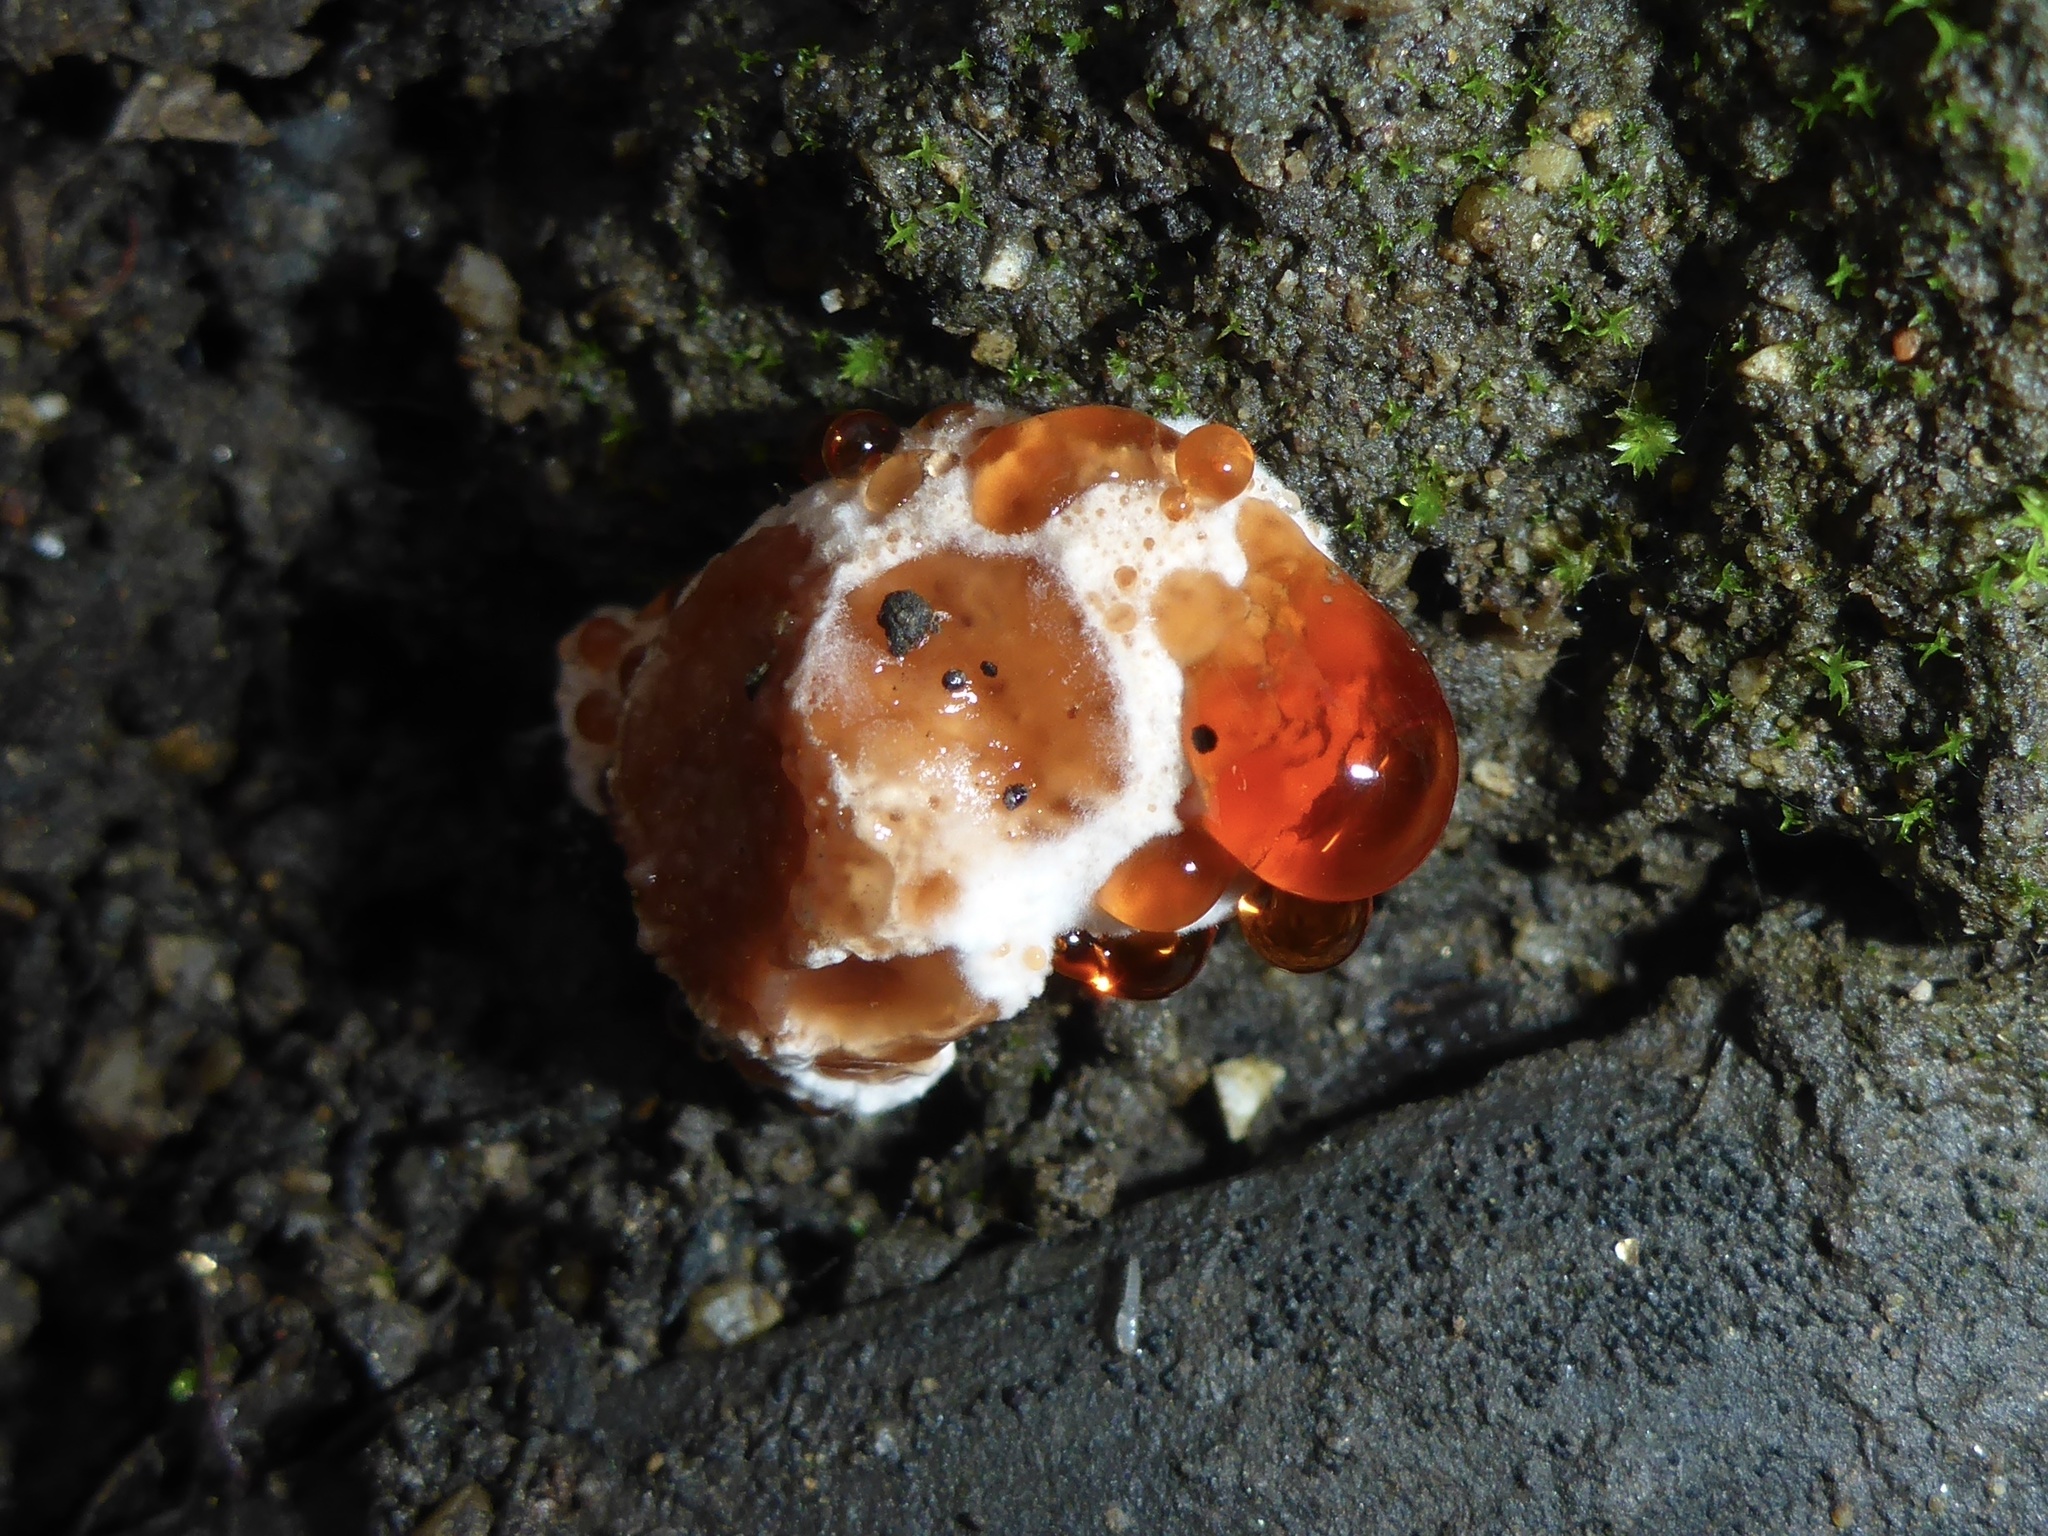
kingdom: Fungi
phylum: Basidiomycota
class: Agaricomycetes
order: Polyporales
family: Podoscyphaceae
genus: Abortiporus
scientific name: Abortiporus biennis
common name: Blushing rosette
